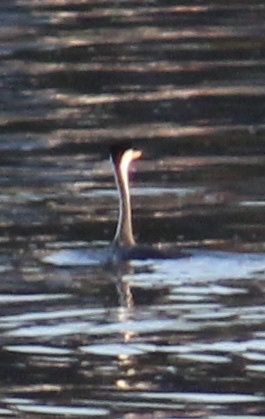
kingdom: Animalia
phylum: Chordata
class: Aves
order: Podicipediformes
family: Podicipedidae
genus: Aechmophorus
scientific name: Aechmophorus clarkii
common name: Clark's grebe
